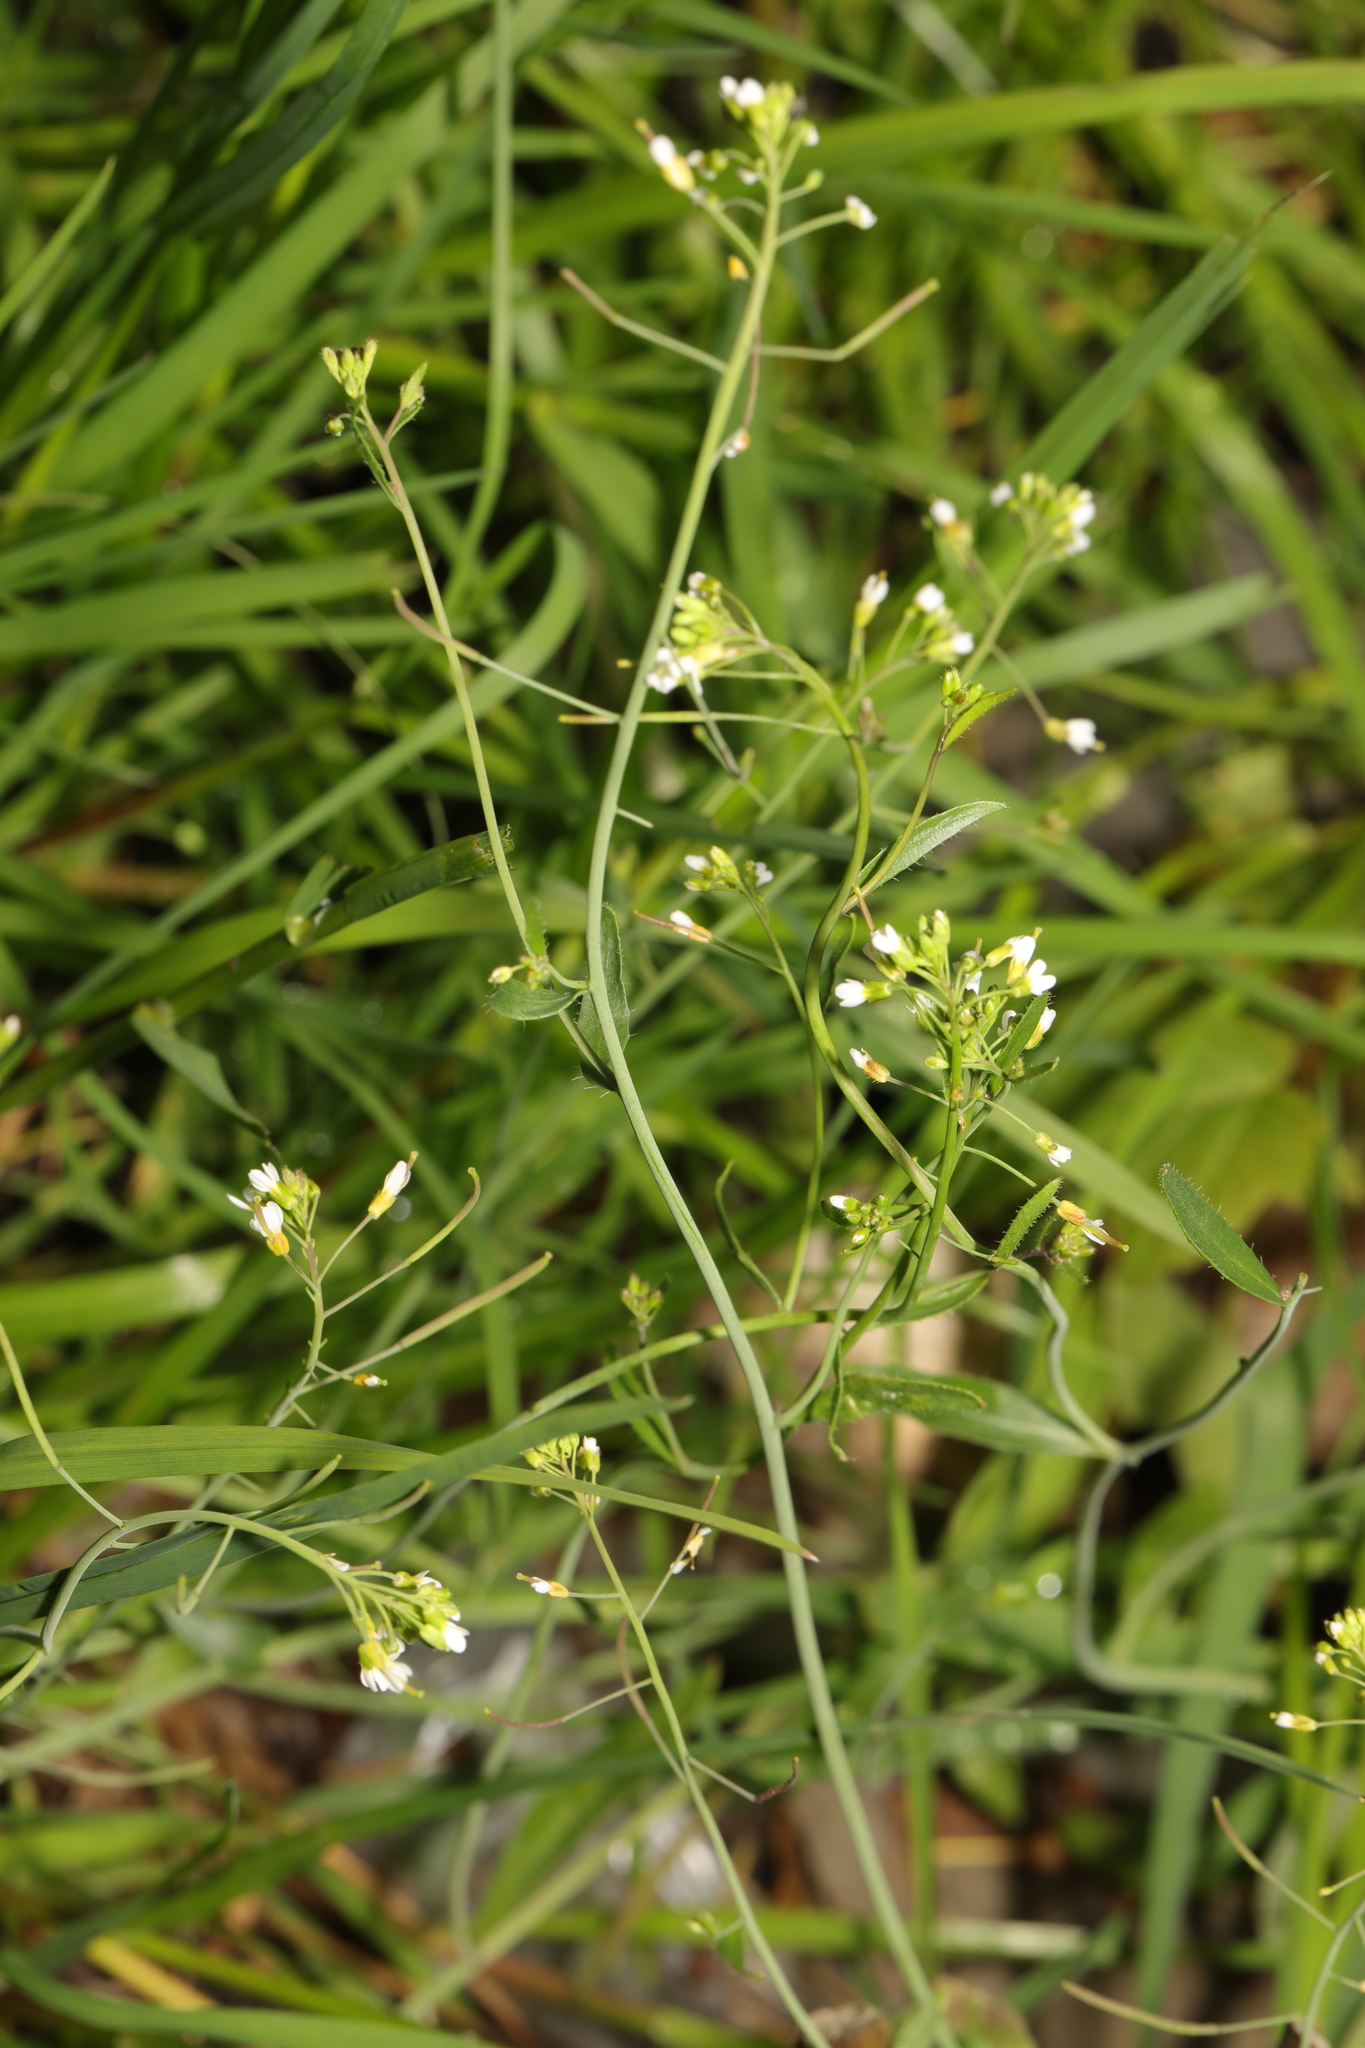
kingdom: Plantae
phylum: Tracheophyta
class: Magnoliopsida
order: Brassicales
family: Brassicaceae
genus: Arabidopsis
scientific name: Arabidopsis thaliana
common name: Thale cress
